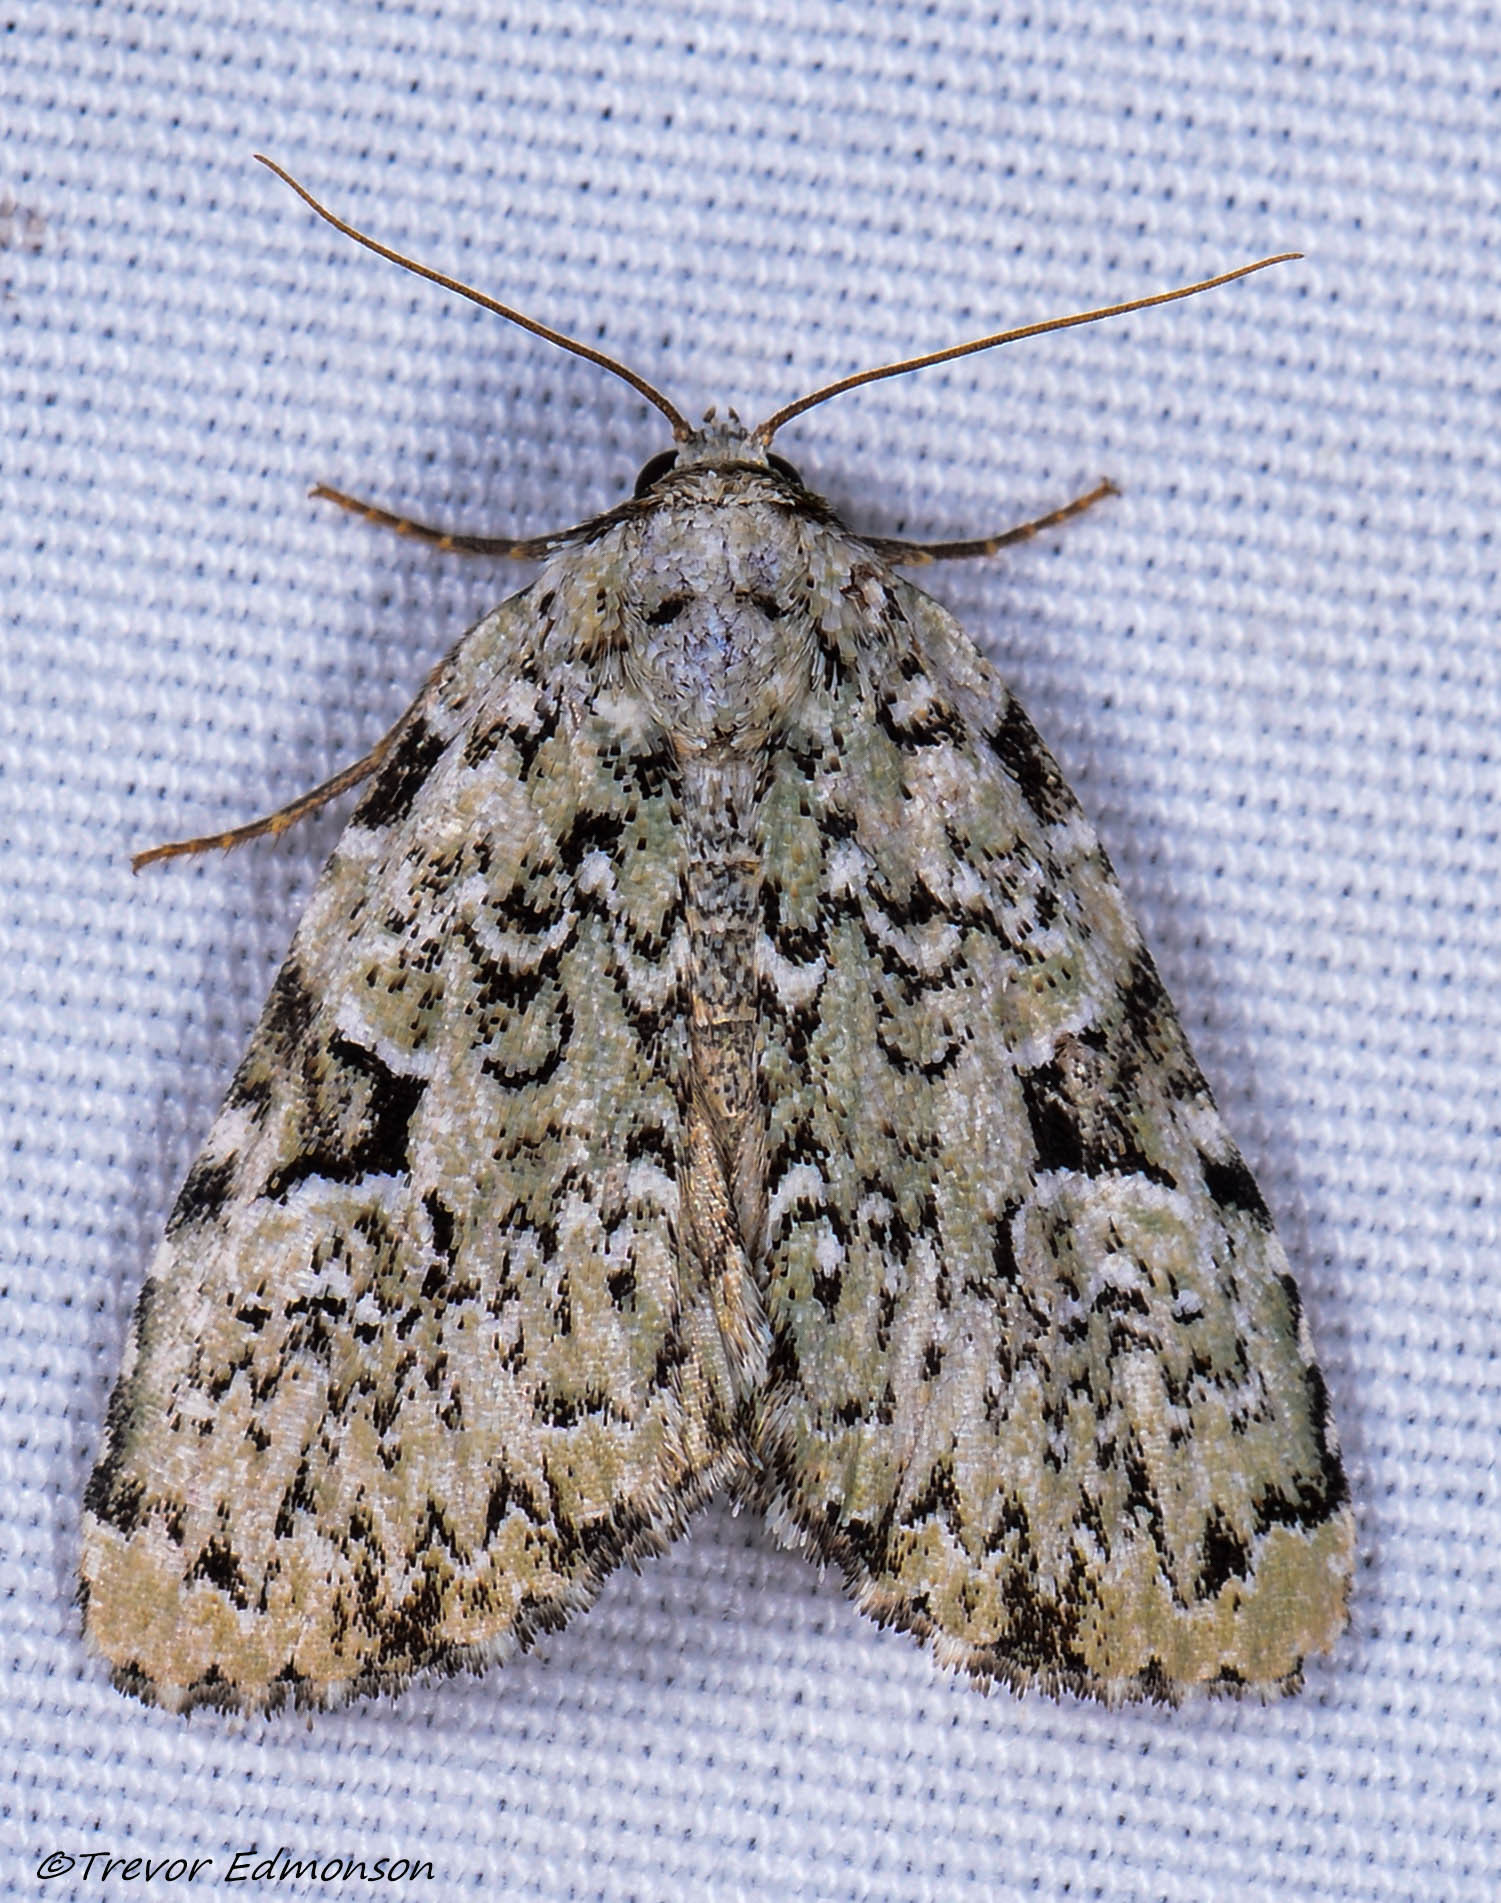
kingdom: Animalia
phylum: Arthropoda
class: Insecta
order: Lepidoptera
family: Noctuidae
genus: Leuconycta
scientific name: Leuconycta diphteroides
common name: Green leuconycta moth
